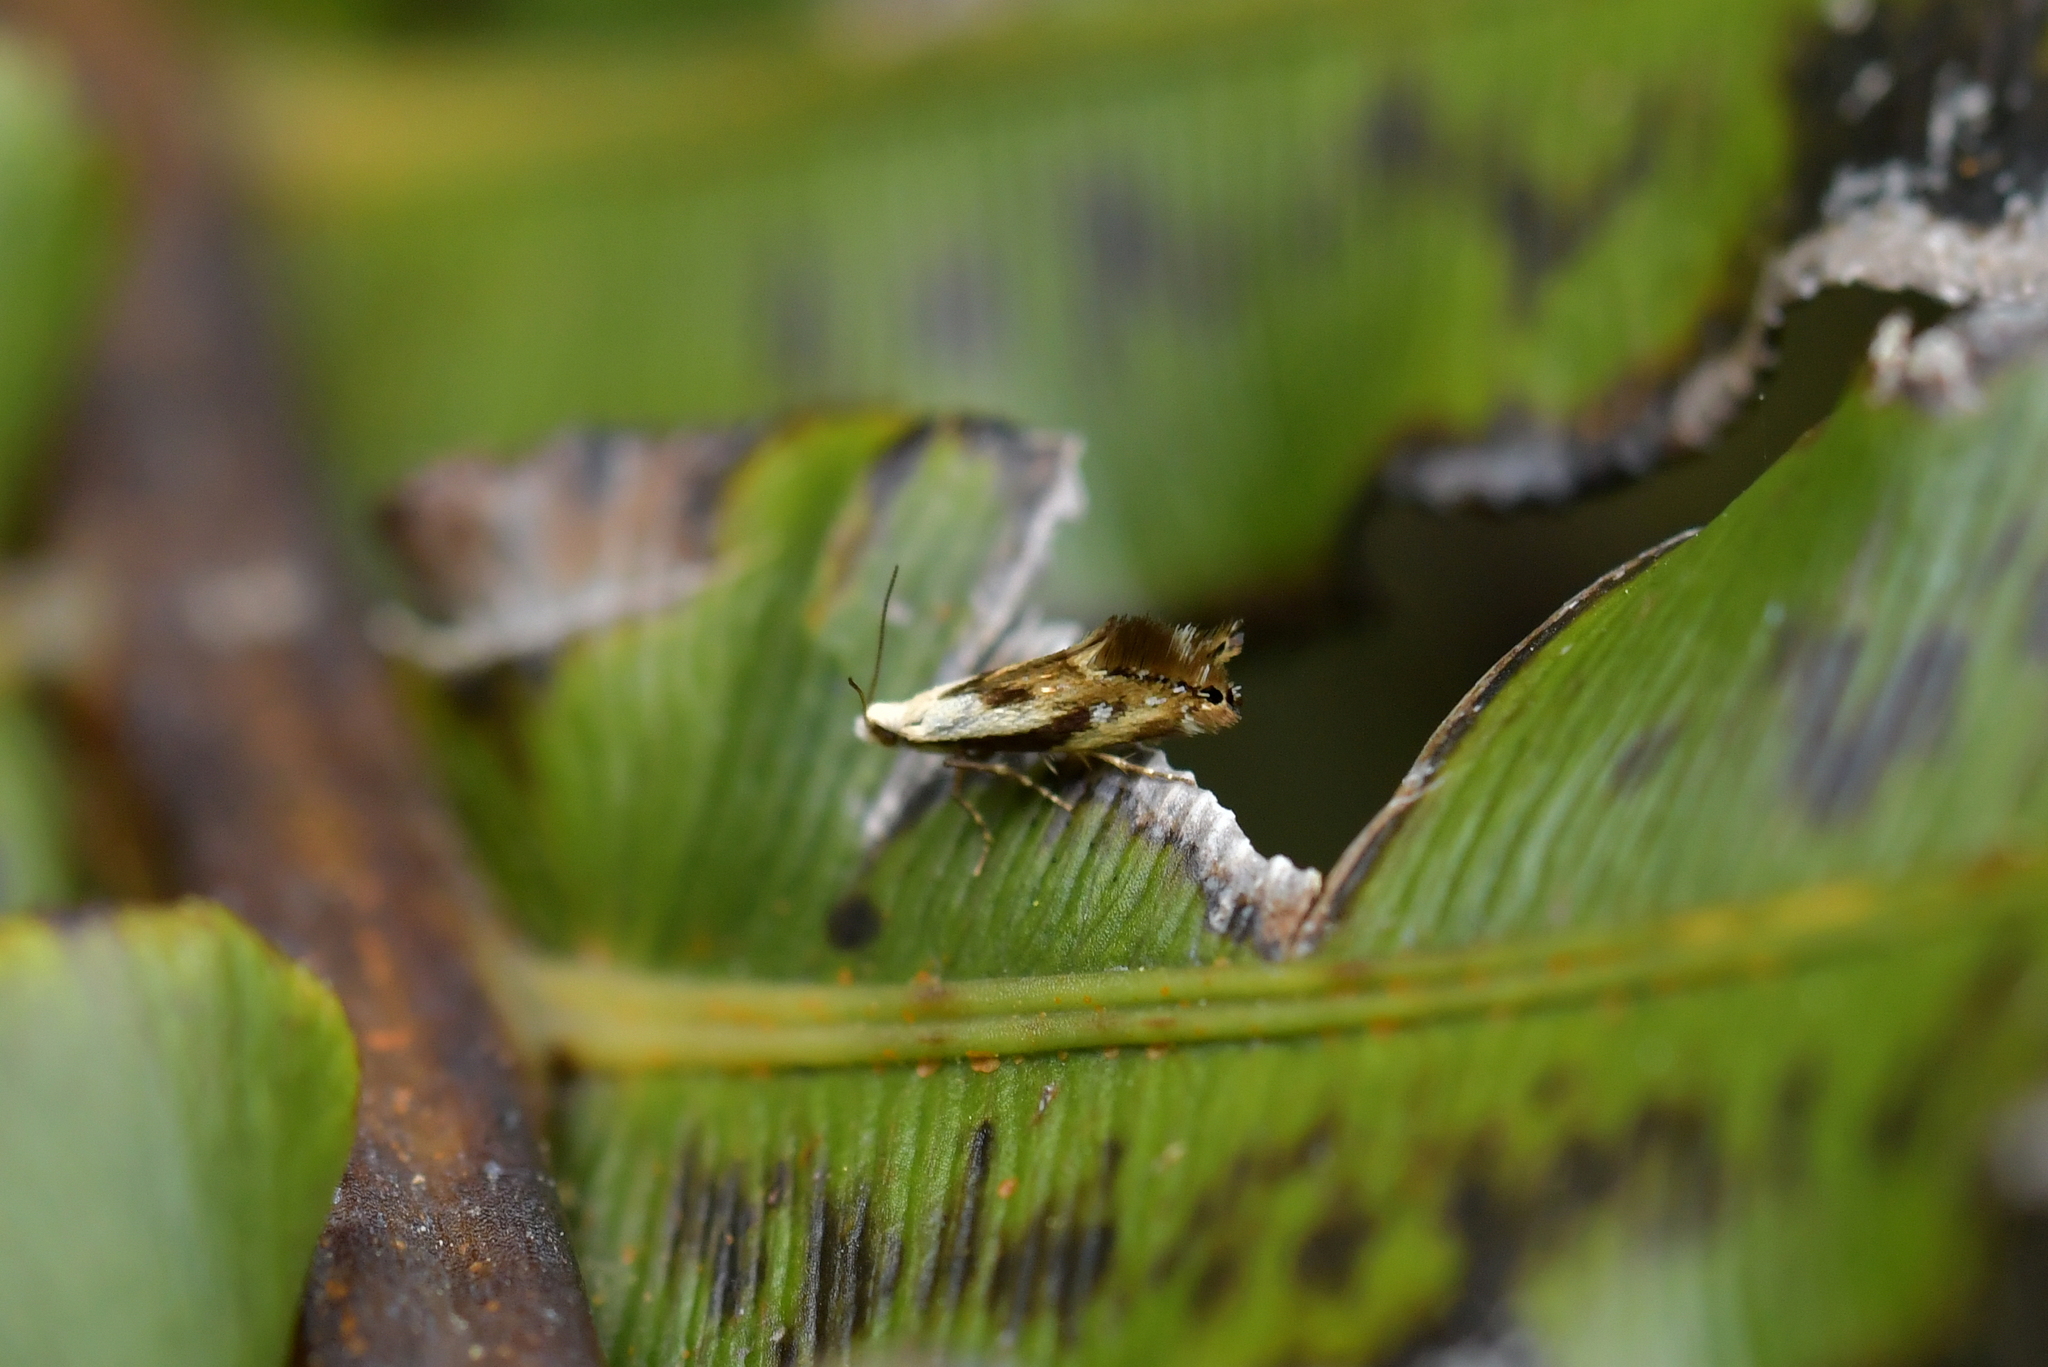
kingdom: Animalia
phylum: Arthropoda
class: Insecta
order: Lepidoptera
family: Mnesarchaeidae
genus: Mnesarchella
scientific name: Mnesarchella acuta
